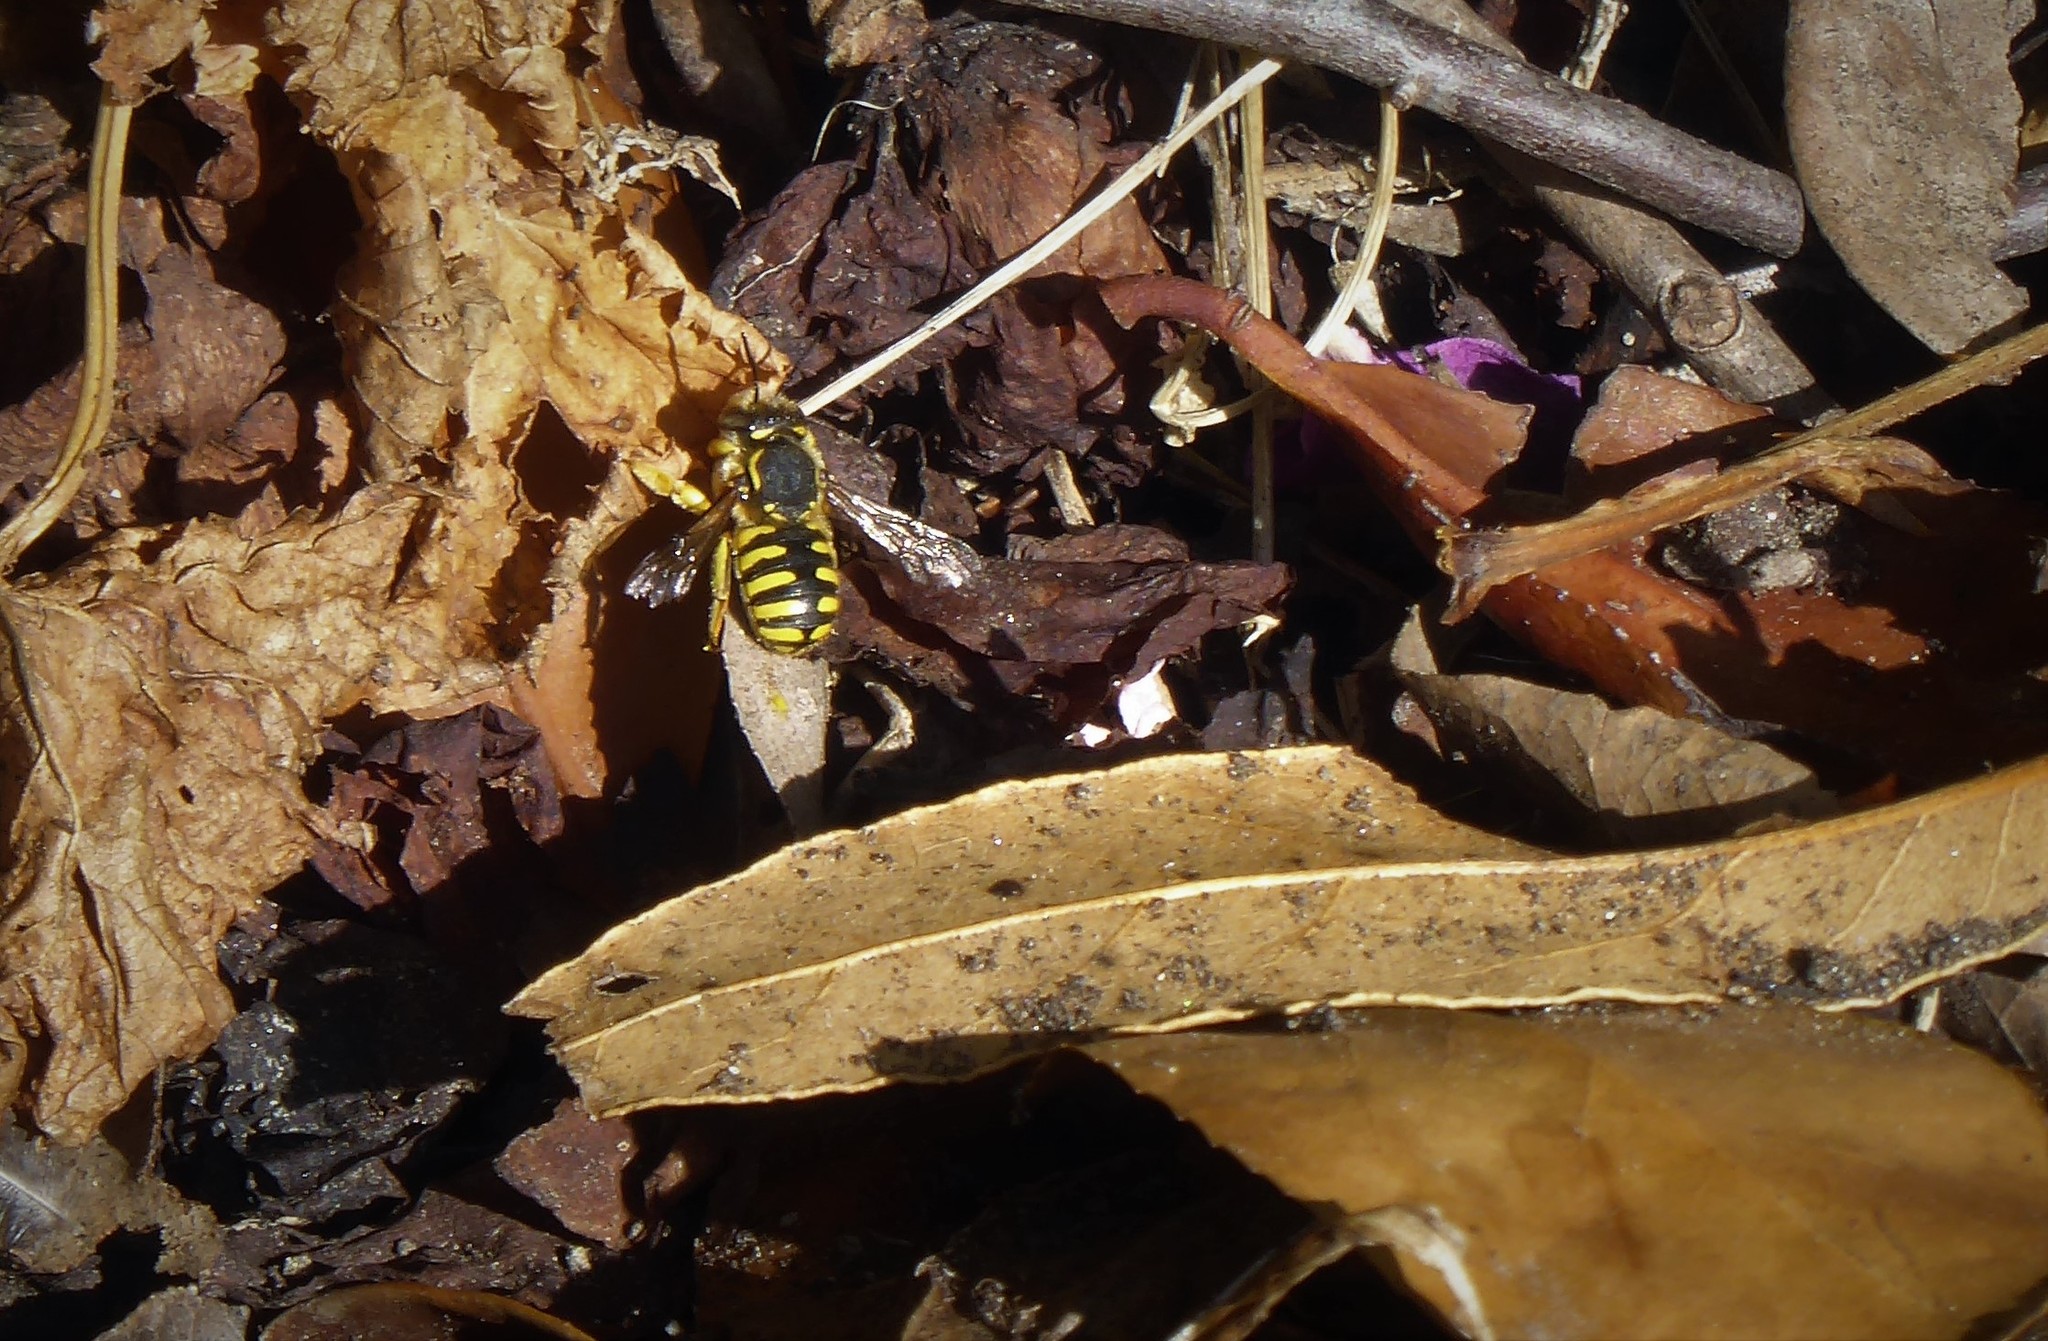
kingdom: Animalia
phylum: Arthropoda
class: Insecta
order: Hymenoptera
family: Megachilidae
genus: Anthidium
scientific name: Anthidium manicatum
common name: Wool carder bee
